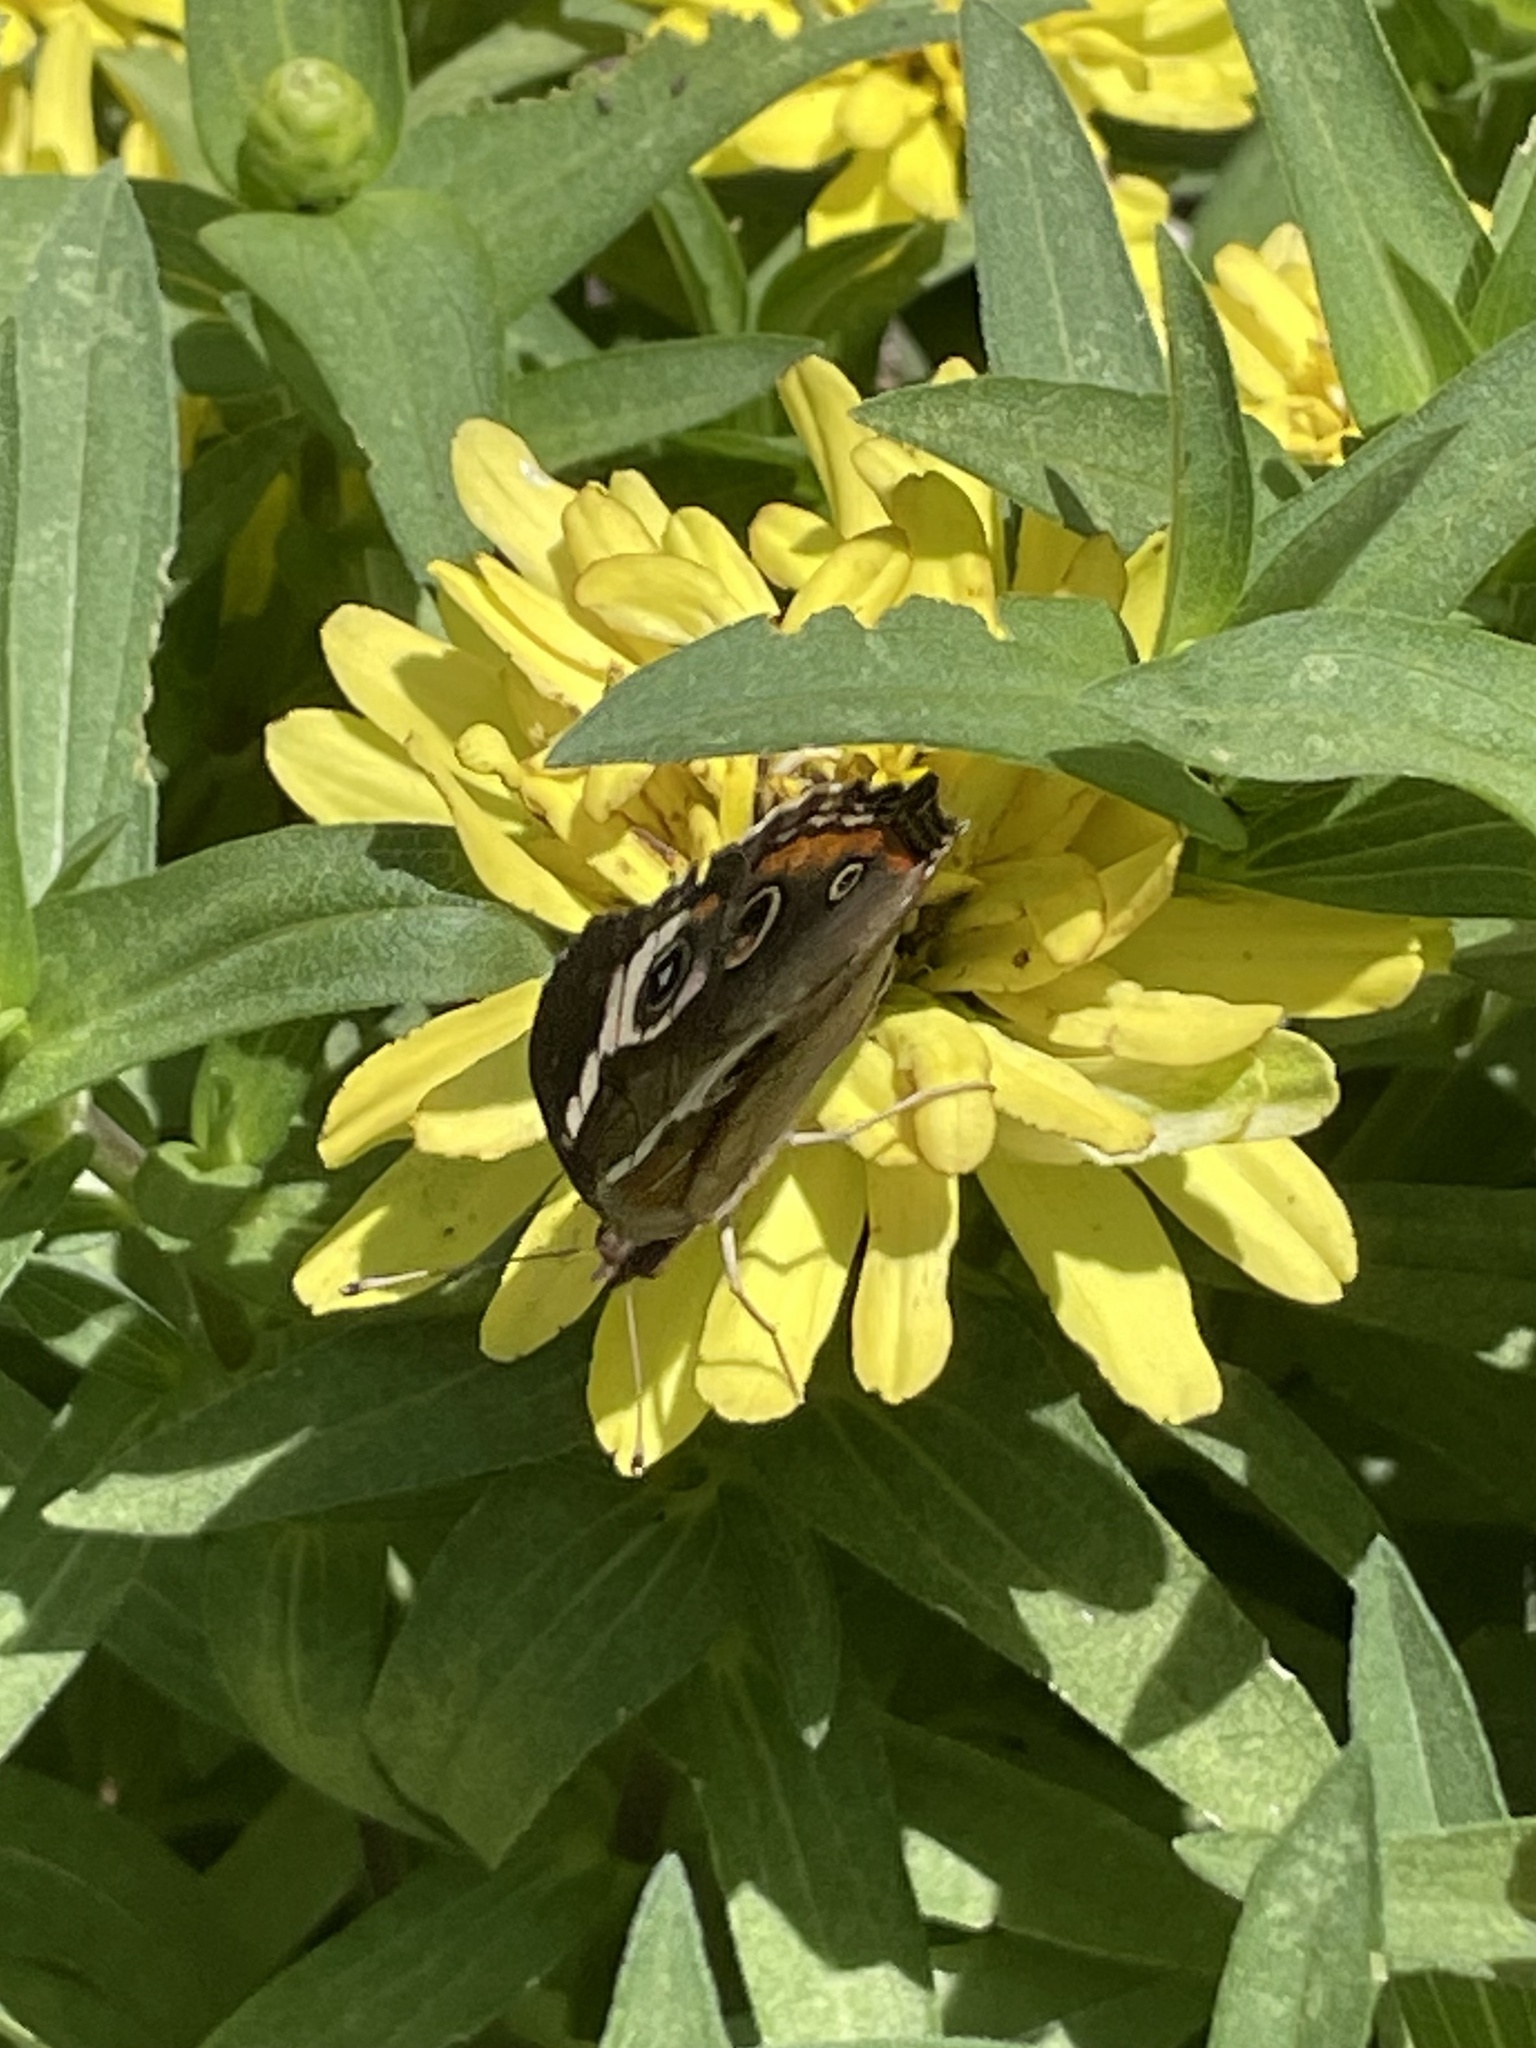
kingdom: Animalia
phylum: Arthropoda
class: Insecta
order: Lepidoptera
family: Nymphalidae
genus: Junonia
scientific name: Junonia coenia
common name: Common buckeye
